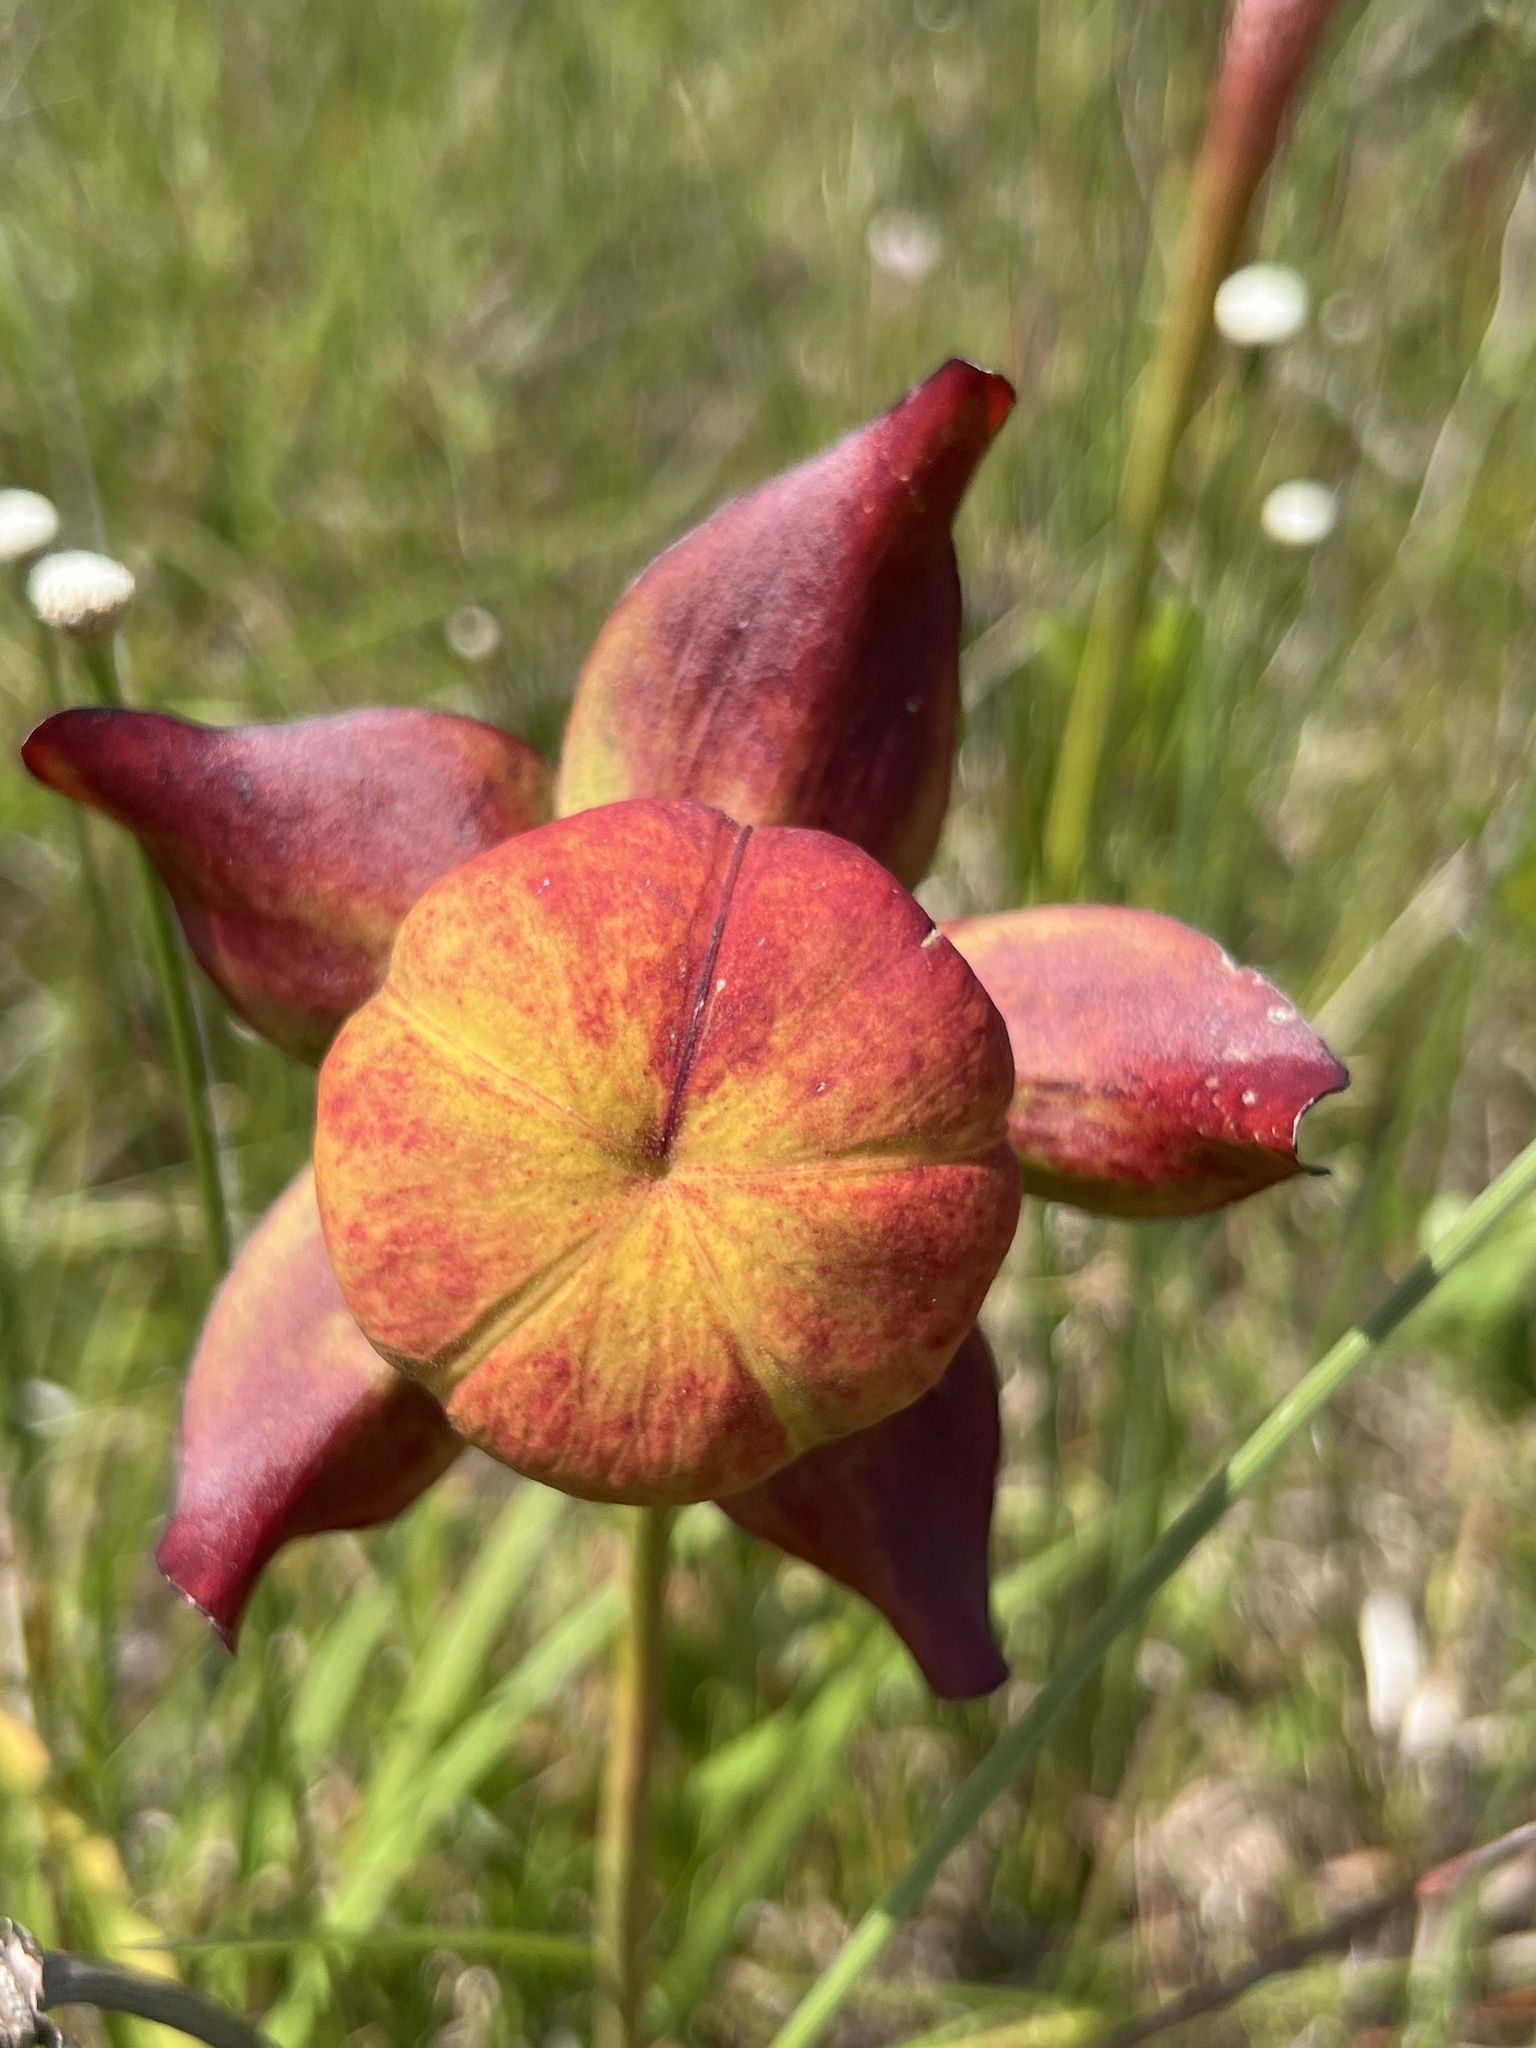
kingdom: Plantae
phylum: Tracheophyta
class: Magnoliopsida
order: Ericales
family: Sarraceniaceae
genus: Sarracenia
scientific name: Sarracenia leucophylla
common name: Purple trumpetleaf
